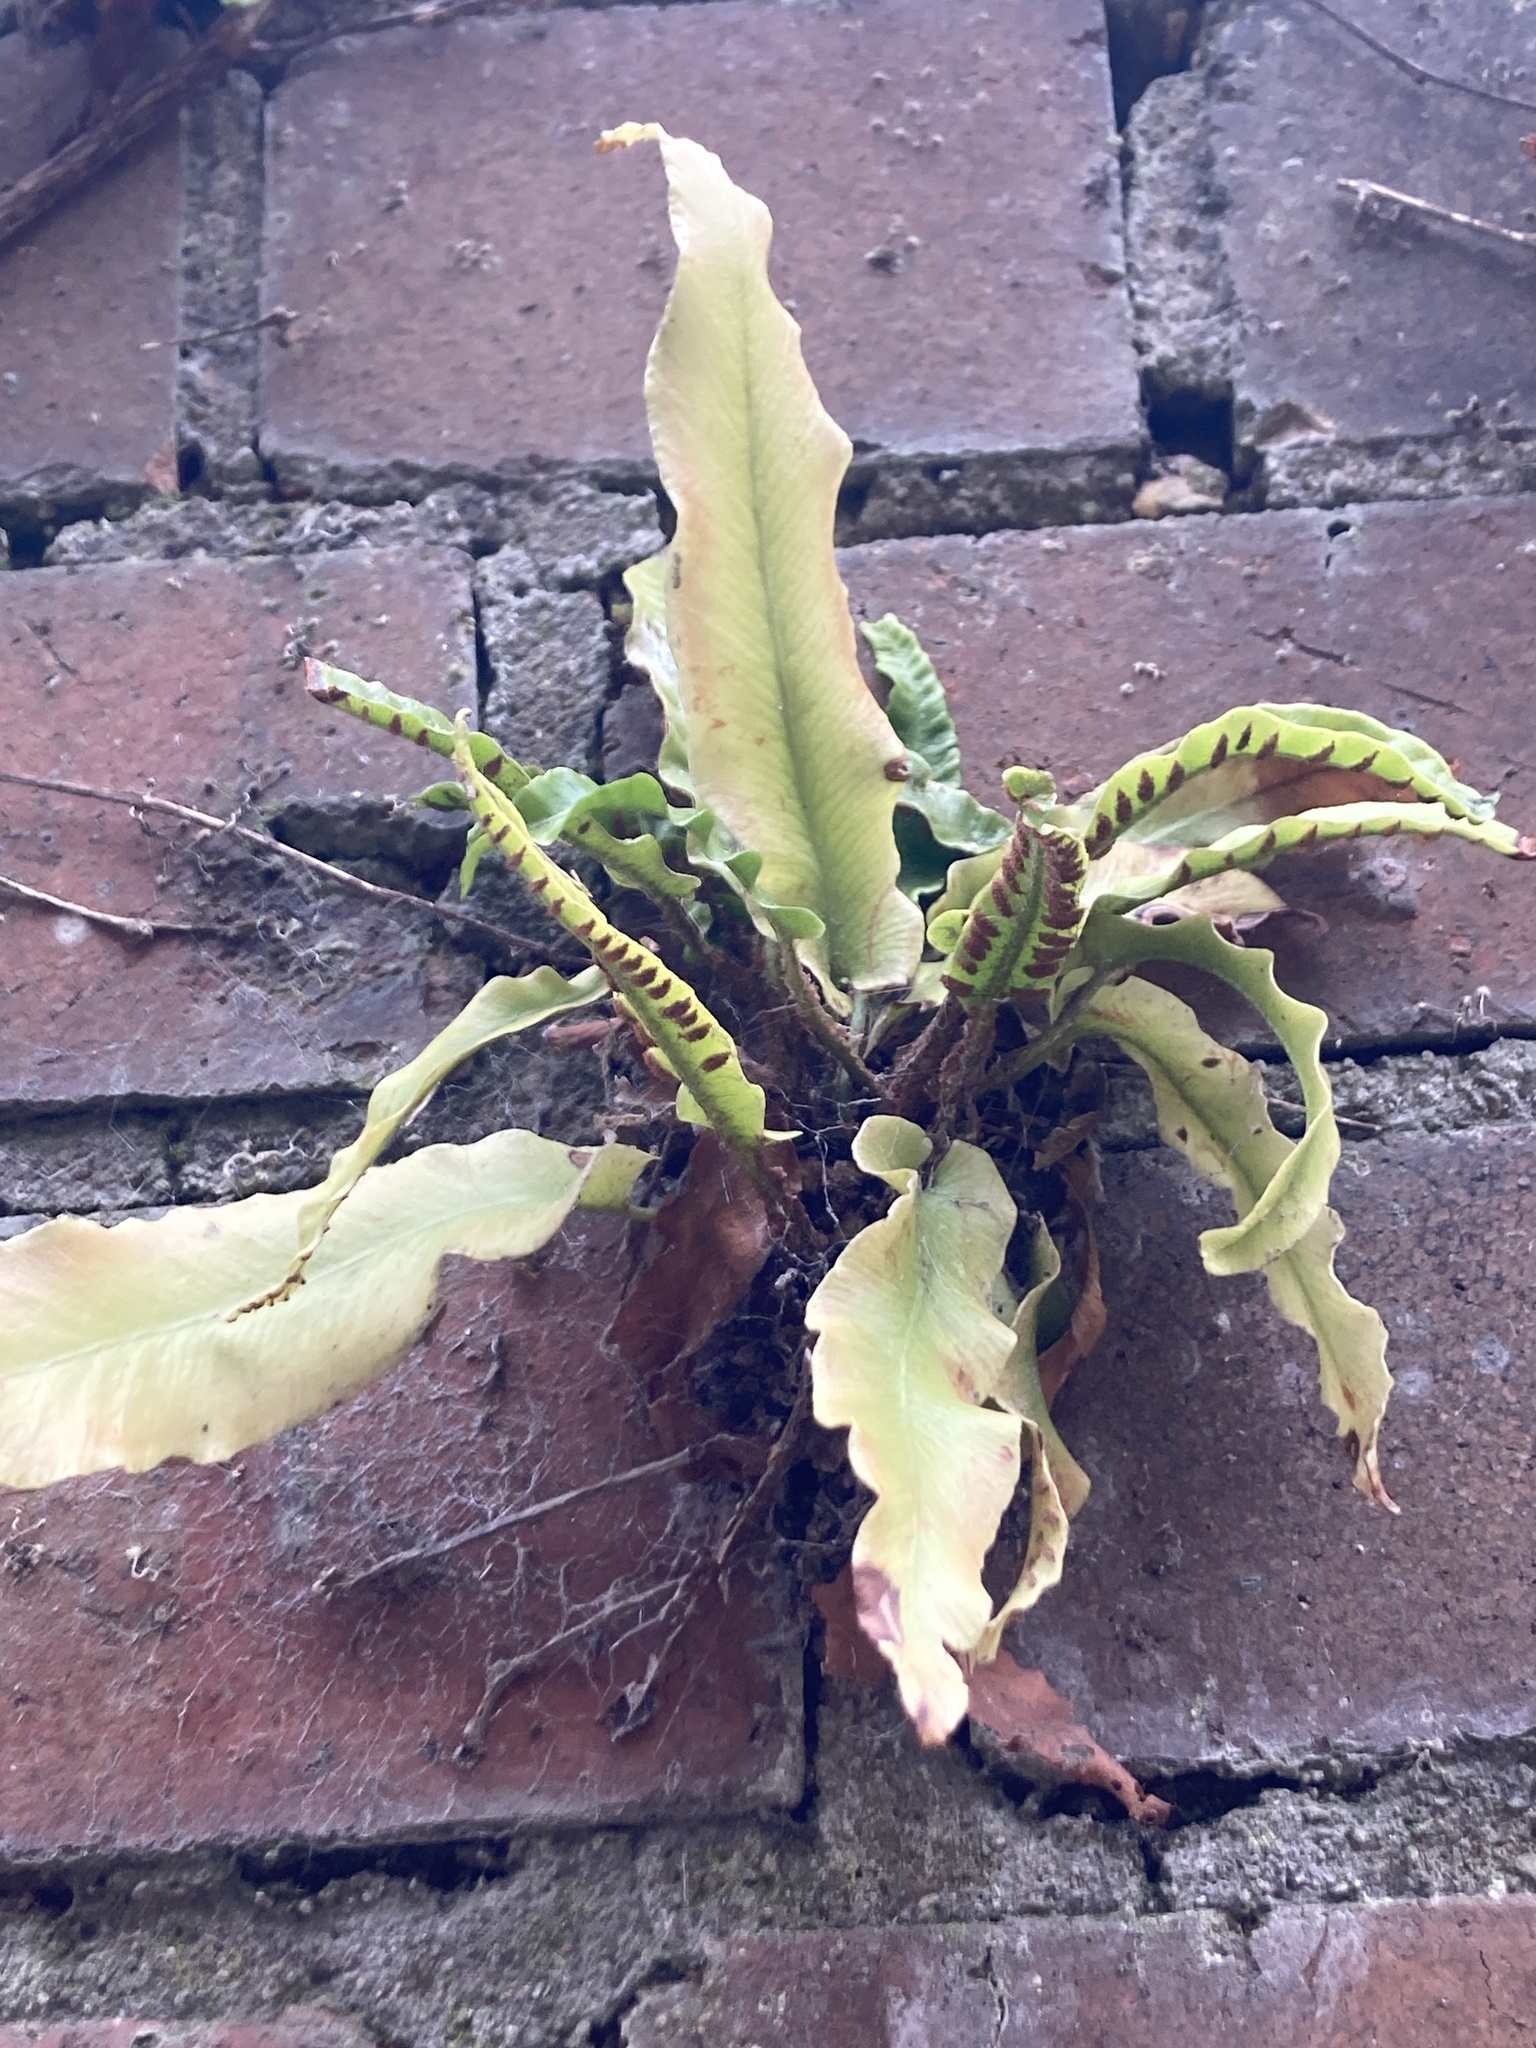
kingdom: Plantae
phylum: Tracheophyta
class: Polypodiopsida
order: Polypodiales
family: Aspleniaceae
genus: Asplenium
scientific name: Asplenium scolopendrium
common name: Hart's-tongue fern
